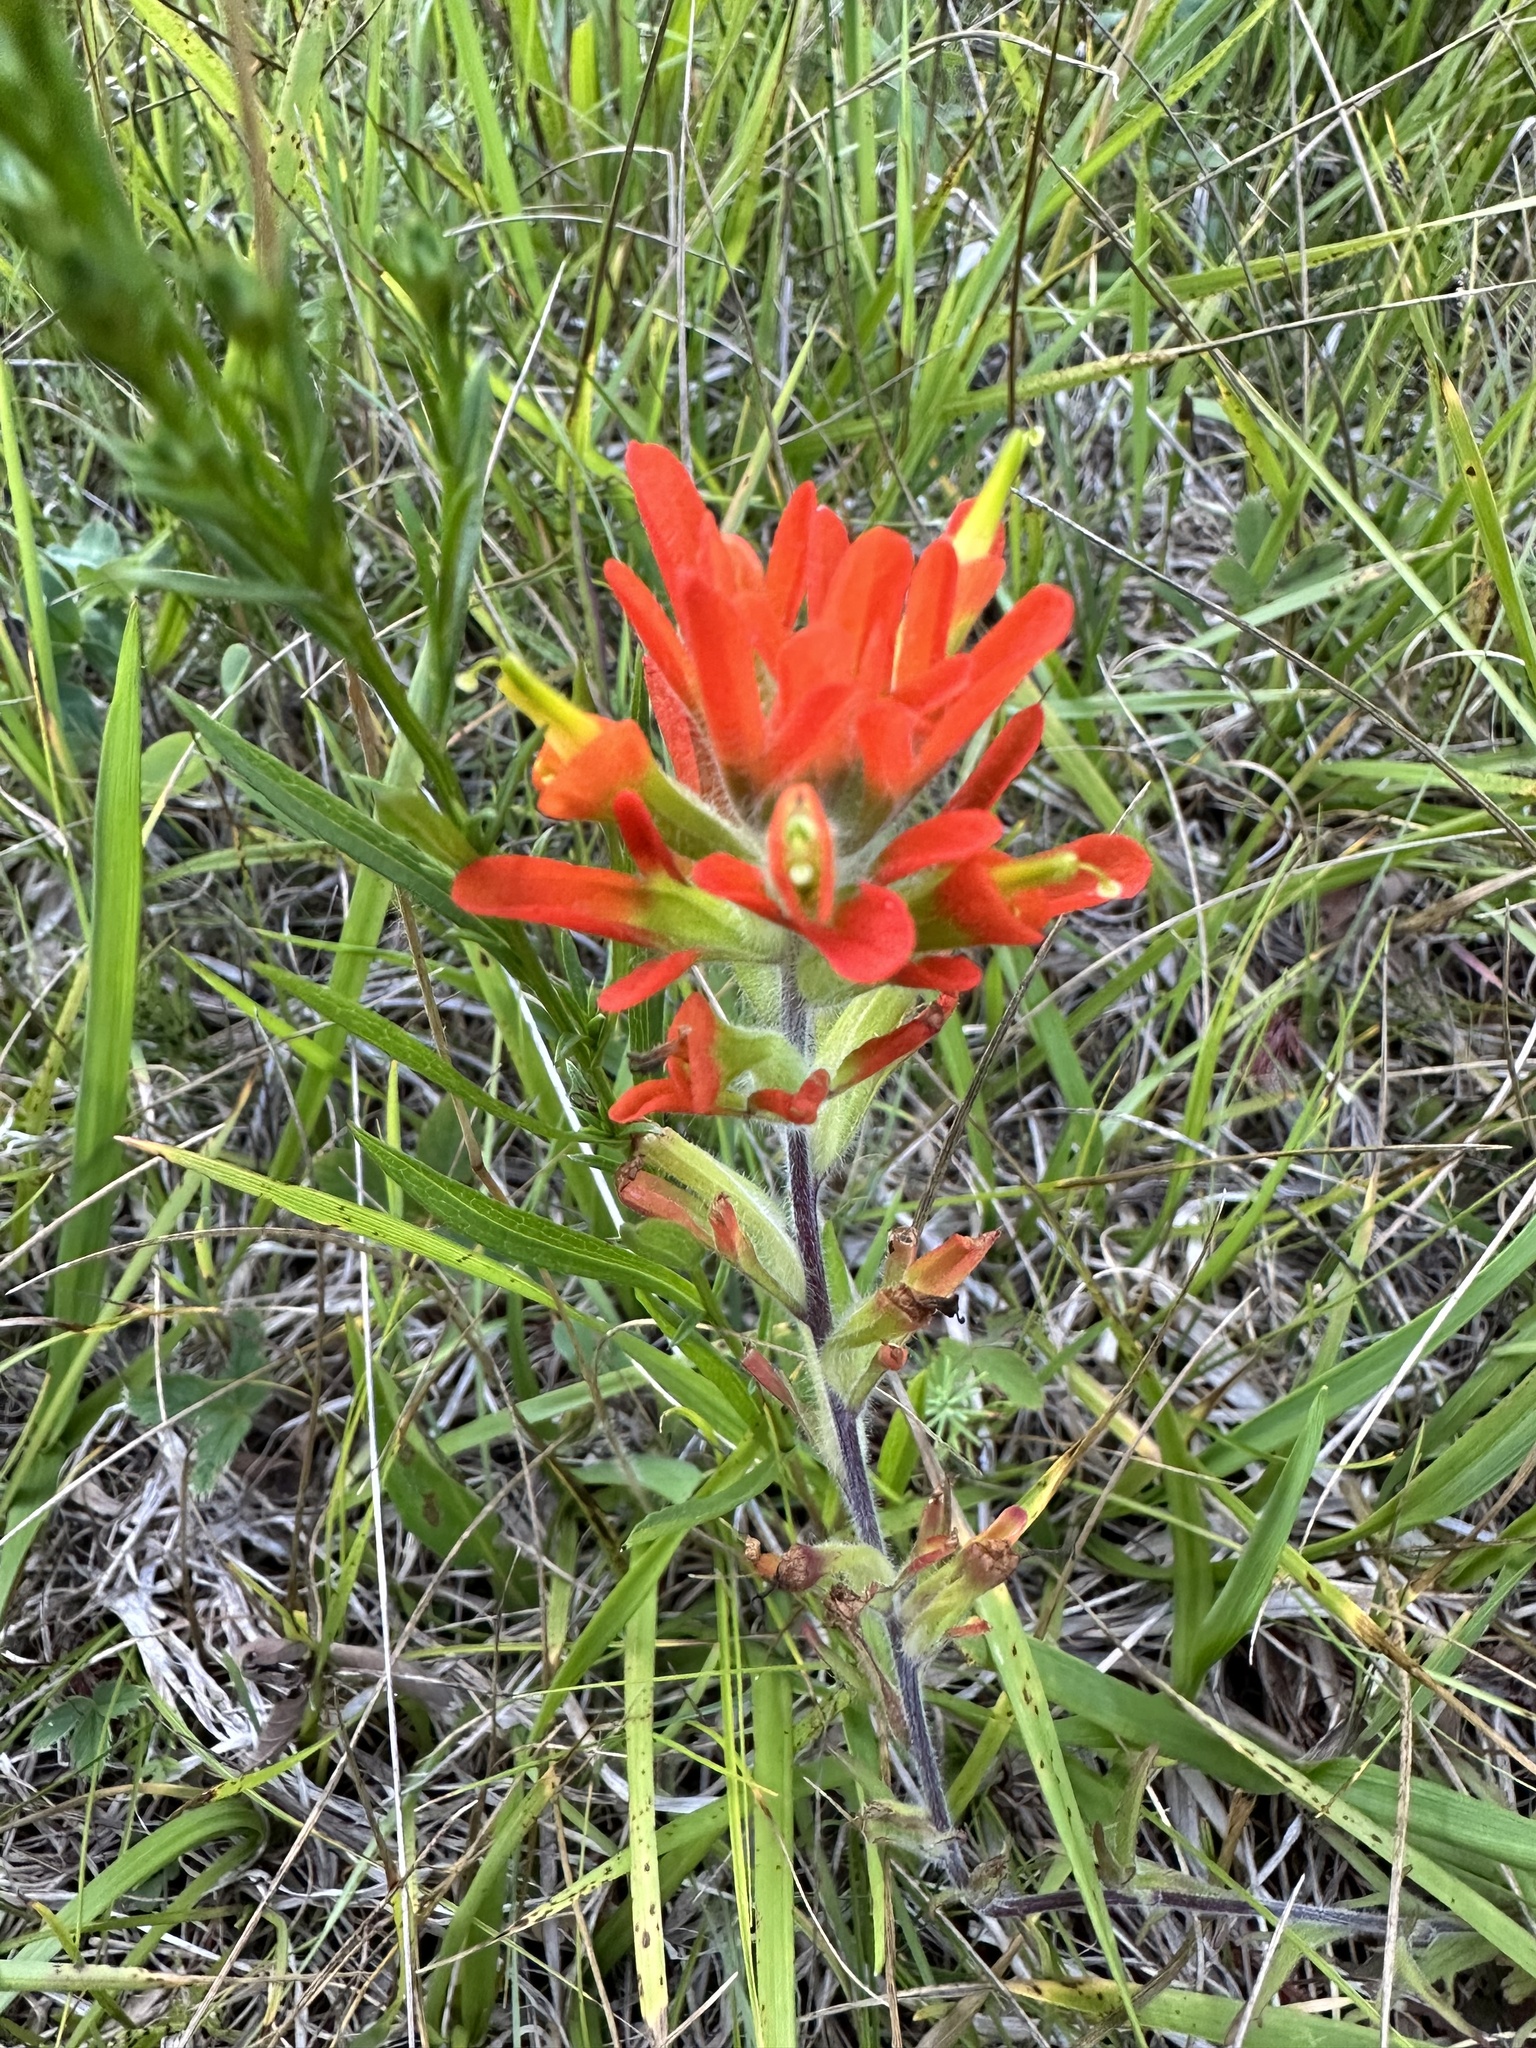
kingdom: Plantae
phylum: Tracheophyta
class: Magnoliopsida
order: Lamiales
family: Orobanchaceae
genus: Castilleja
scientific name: Castilleja coccinea
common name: Scarlet paintbrush
